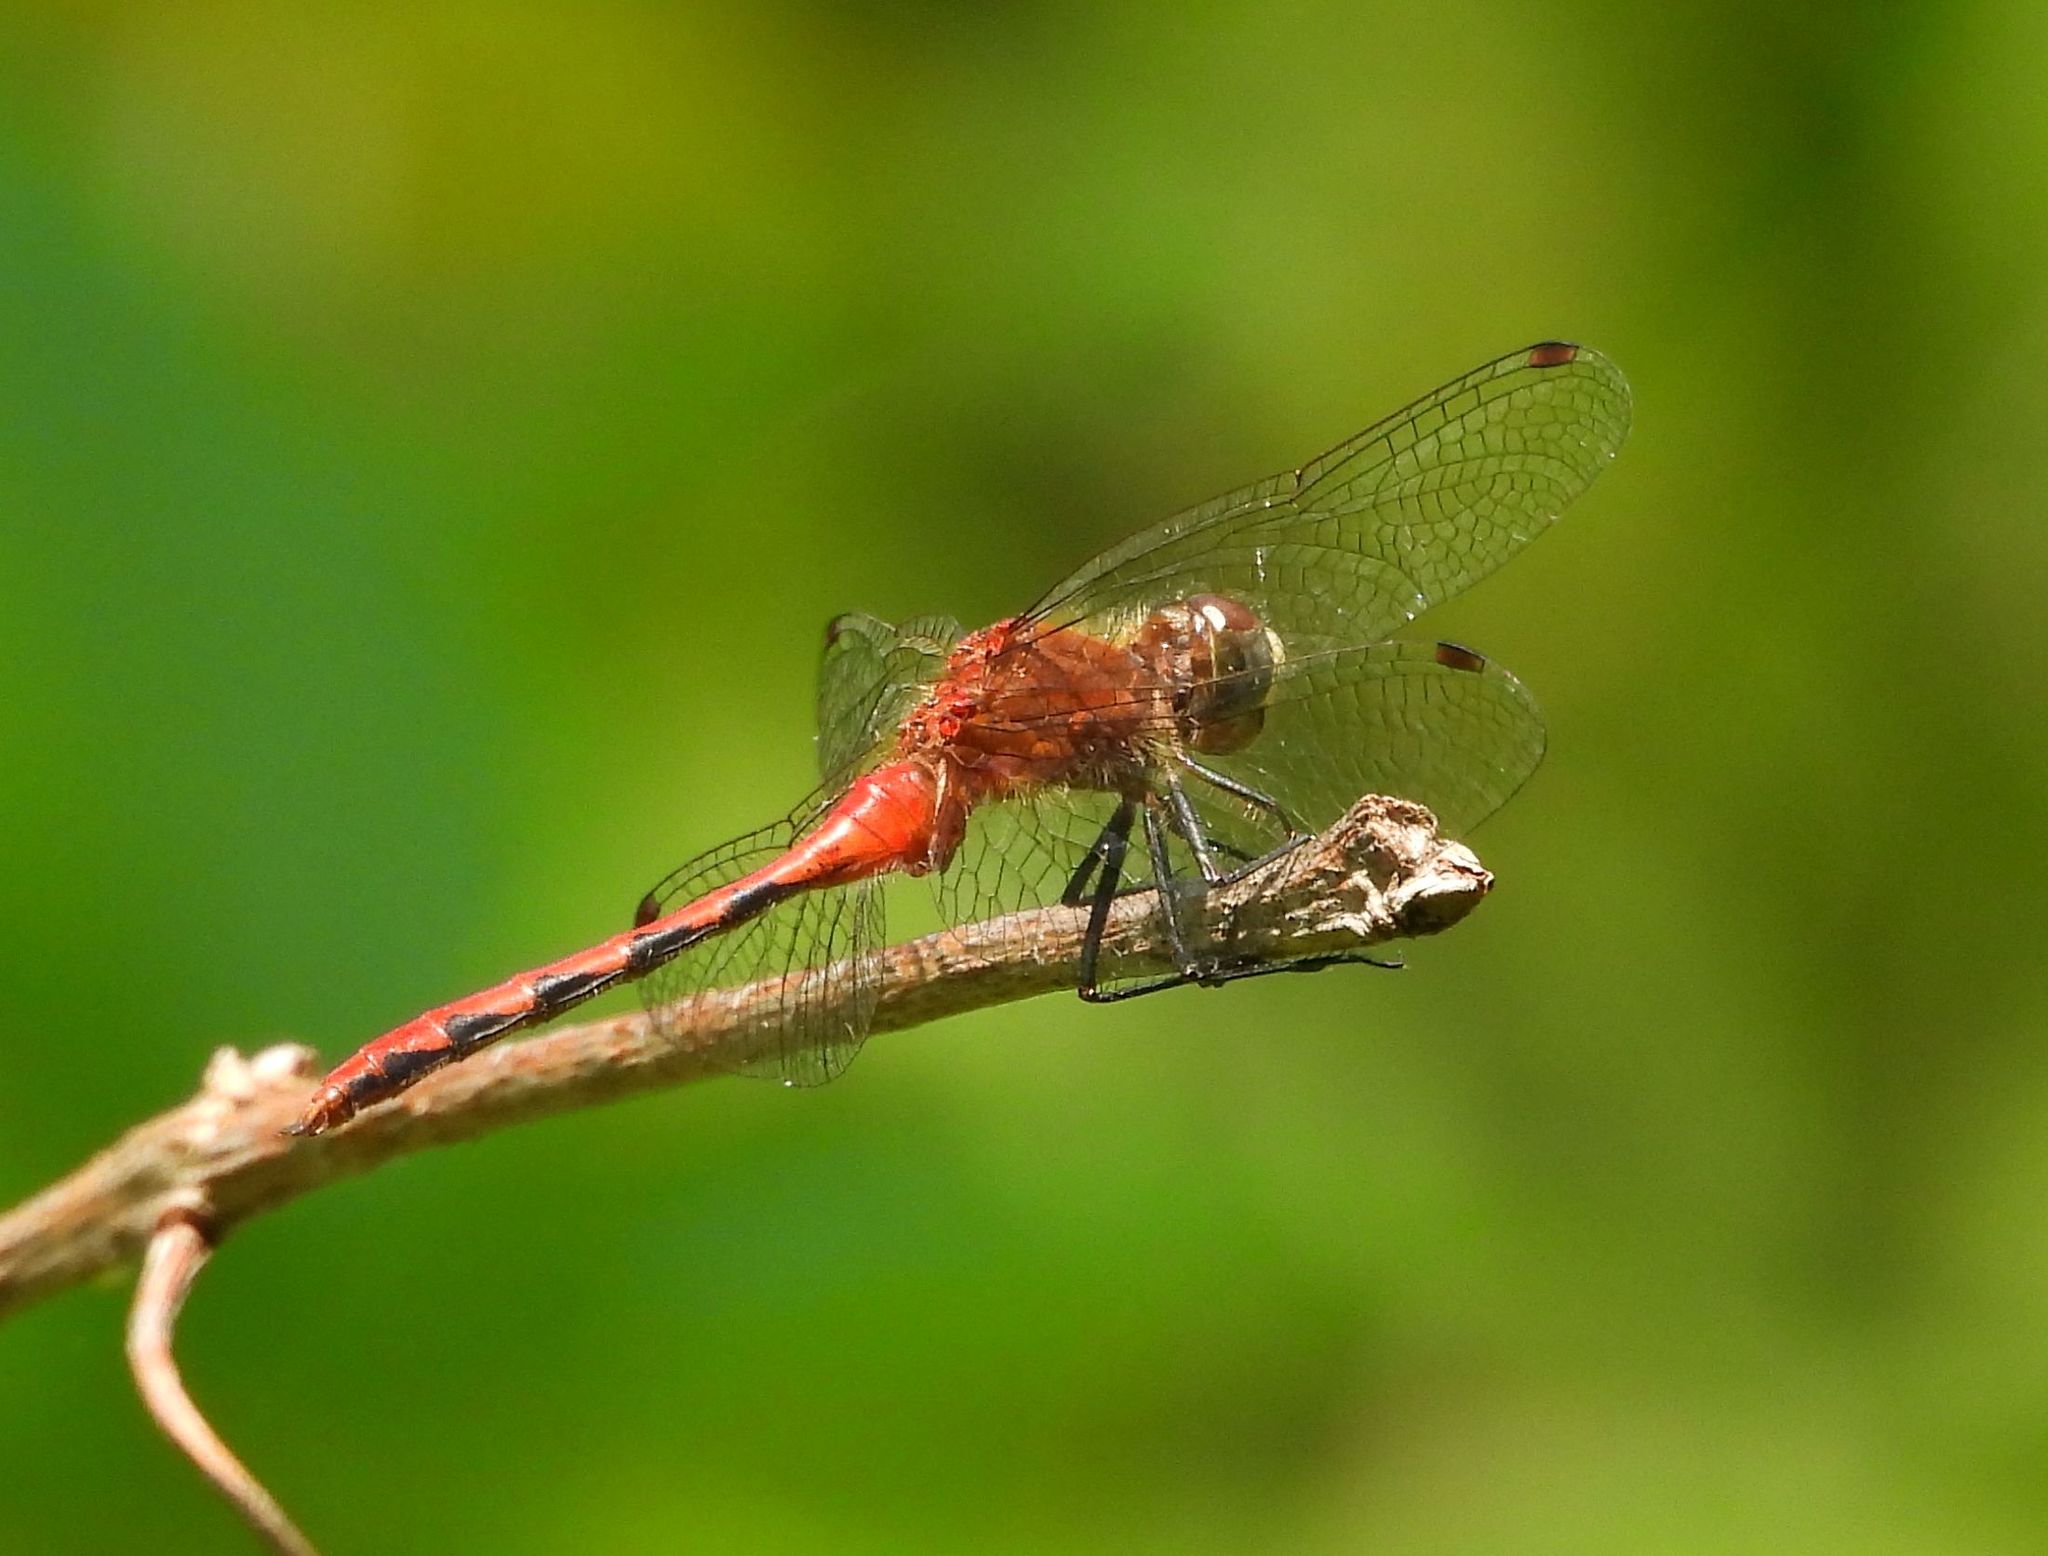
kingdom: Animalia
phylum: Arthropoda
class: Insecta
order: Odonata
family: Libellulidae
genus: Sympetrum
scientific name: Sympetrum obtrusum
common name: White-faced meadowhawk
